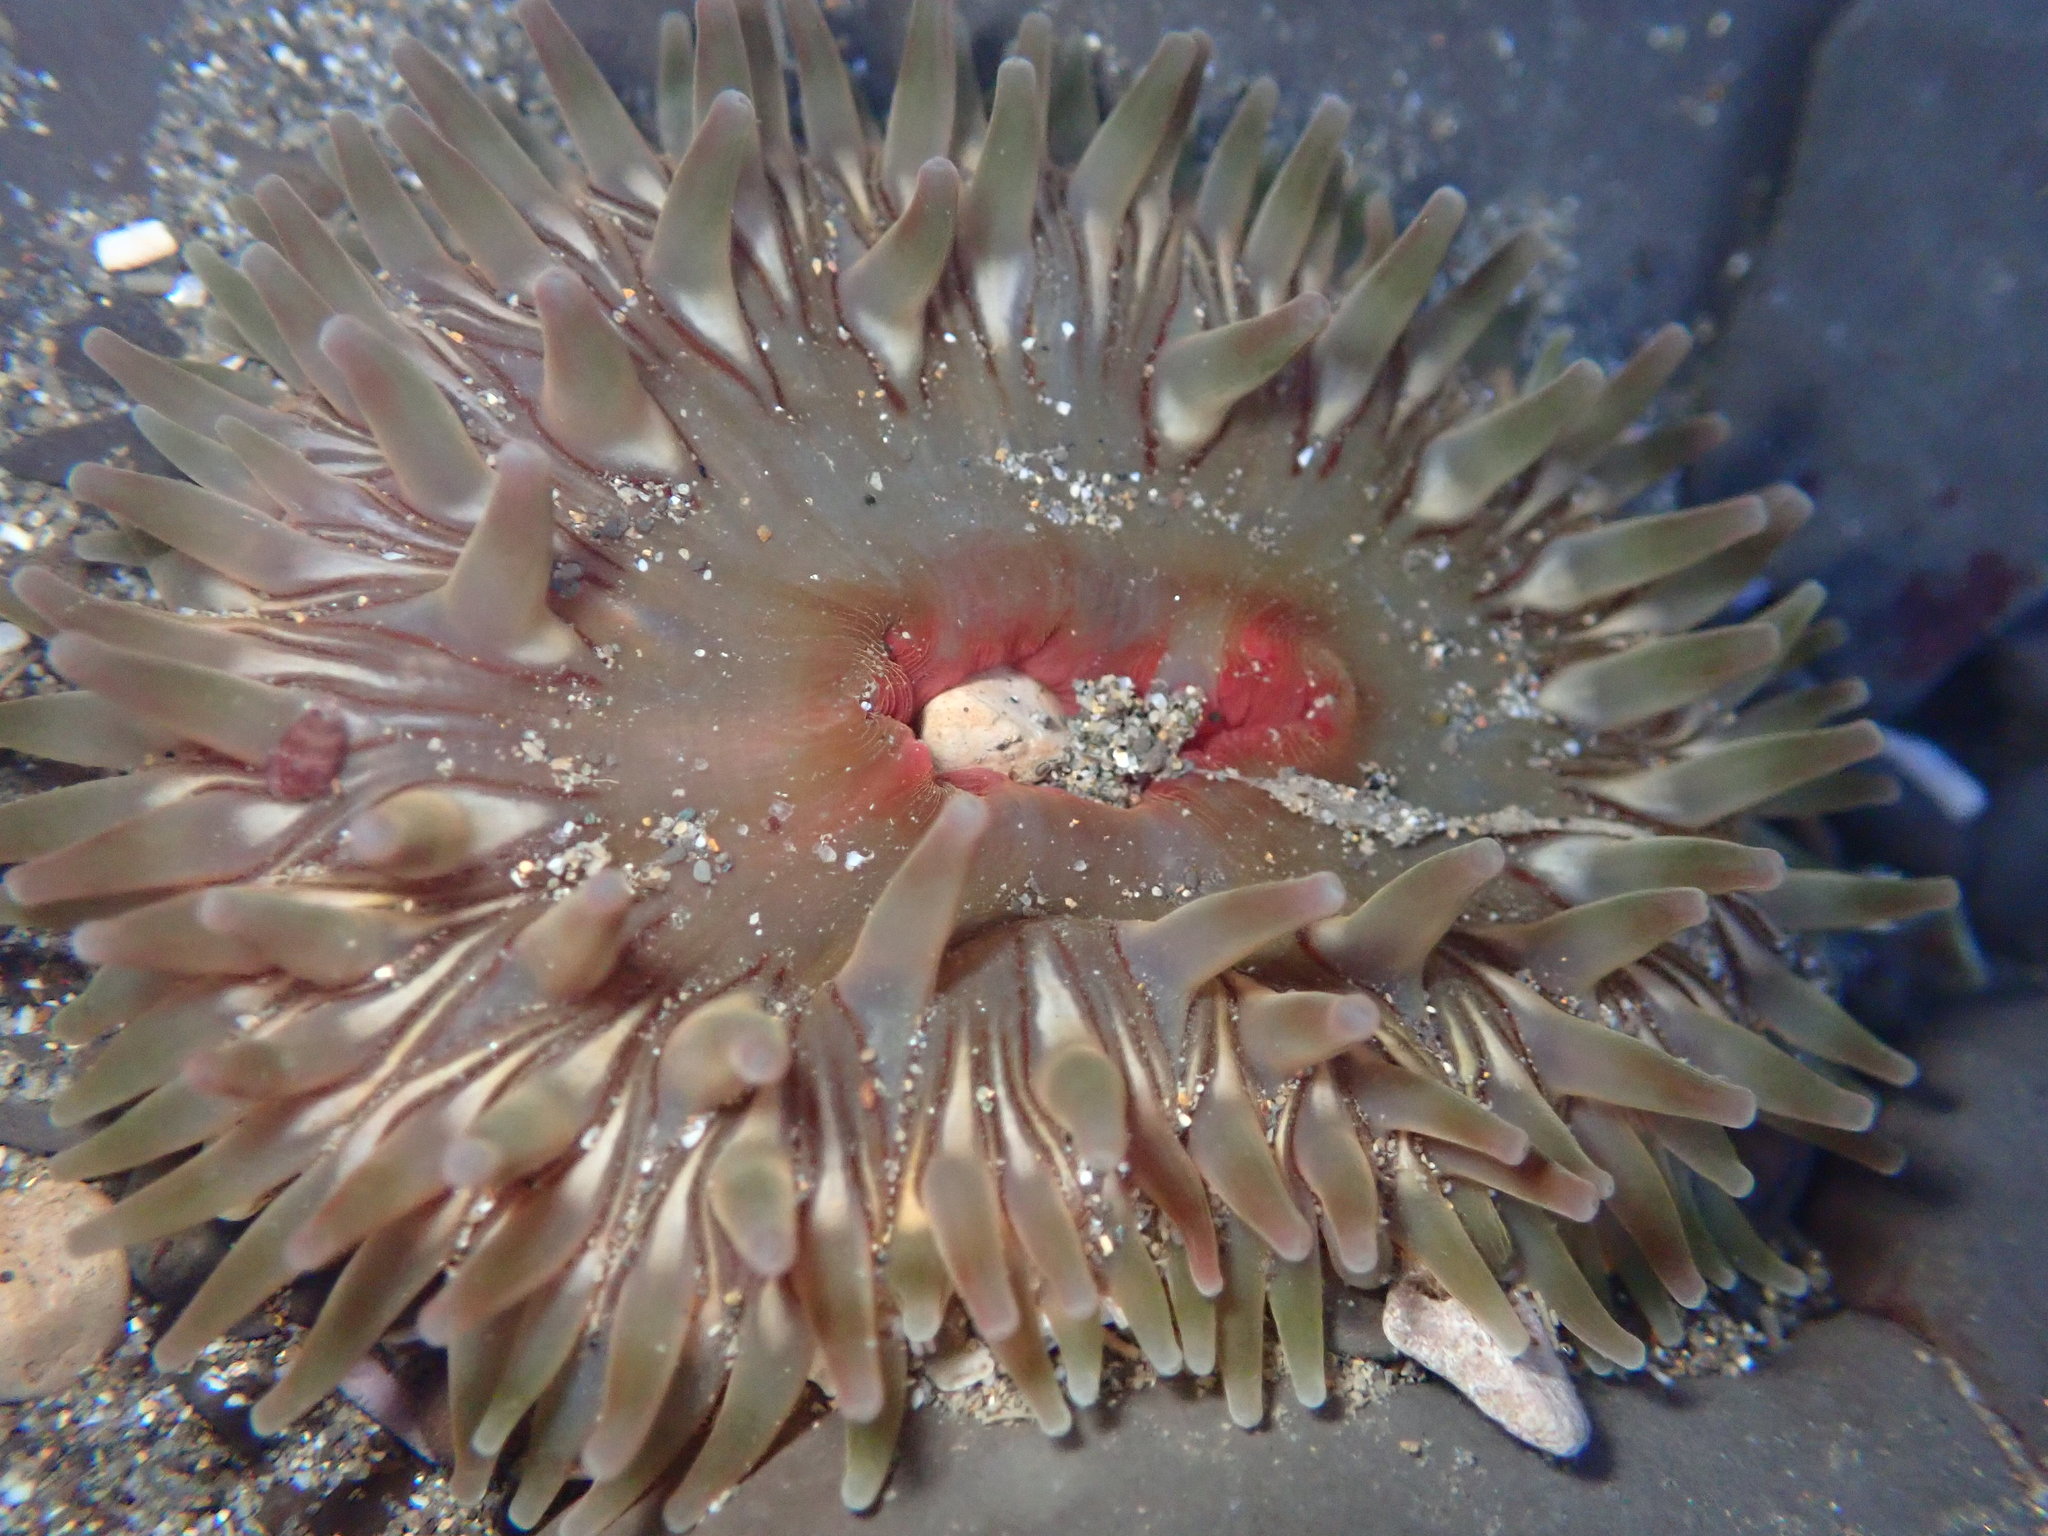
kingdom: Animalia
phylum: Cnidaria
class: Anthozoa
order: Actiniaria
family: Actiniidae
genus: Urticina
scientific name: Urticina clandestina
